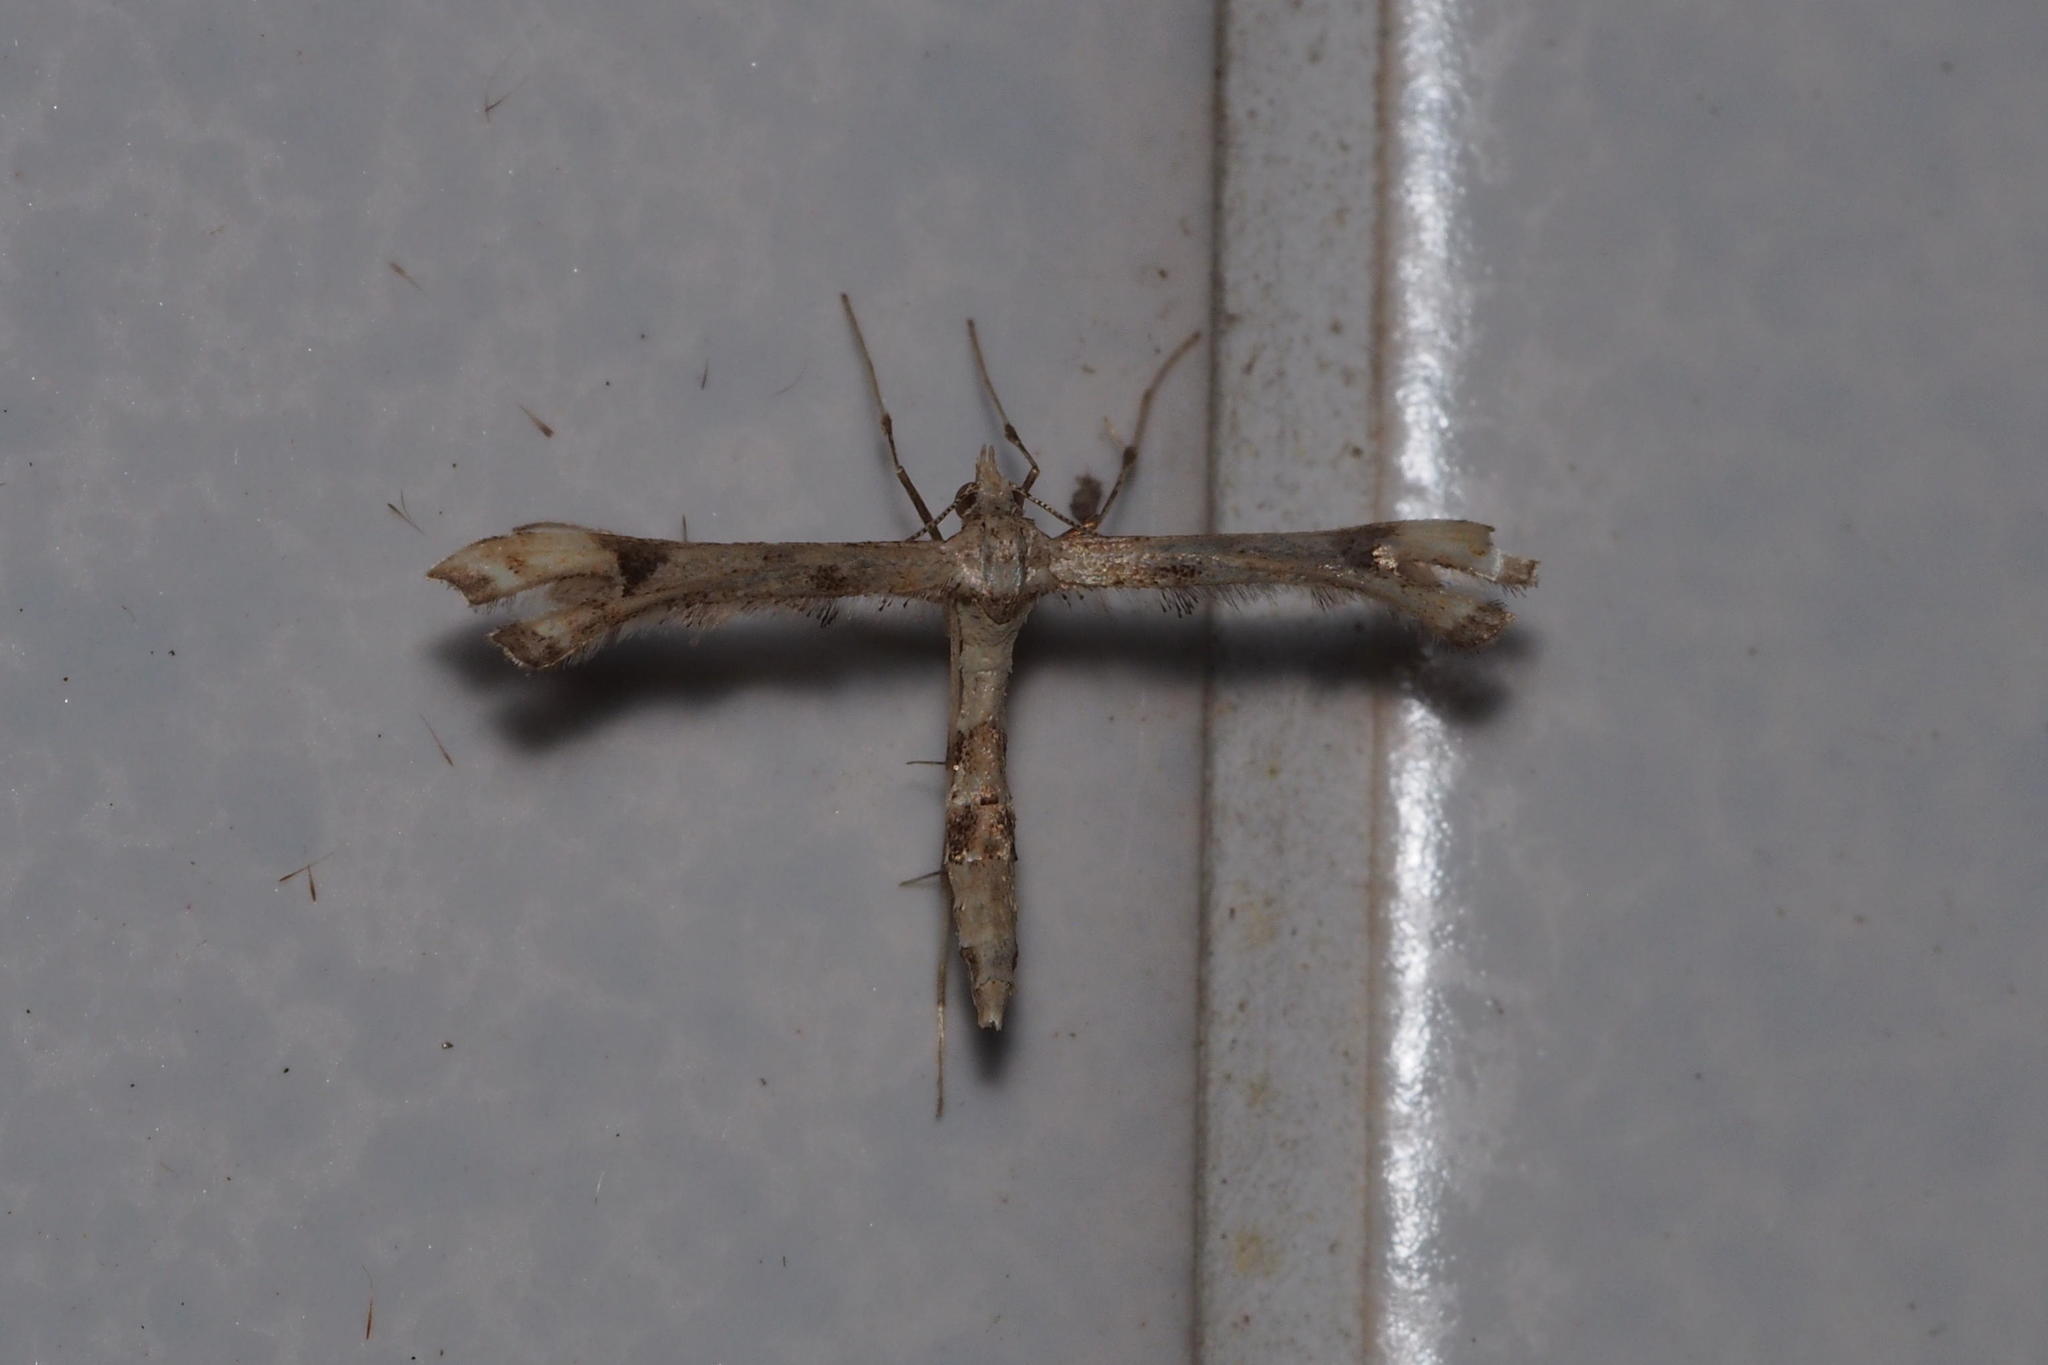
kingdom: Animalia
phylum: Arthropoda
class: Insecta
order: Lepidoptera
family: Pterophoridae
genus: Platyptilia
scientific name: Platyptilia farfarellus
